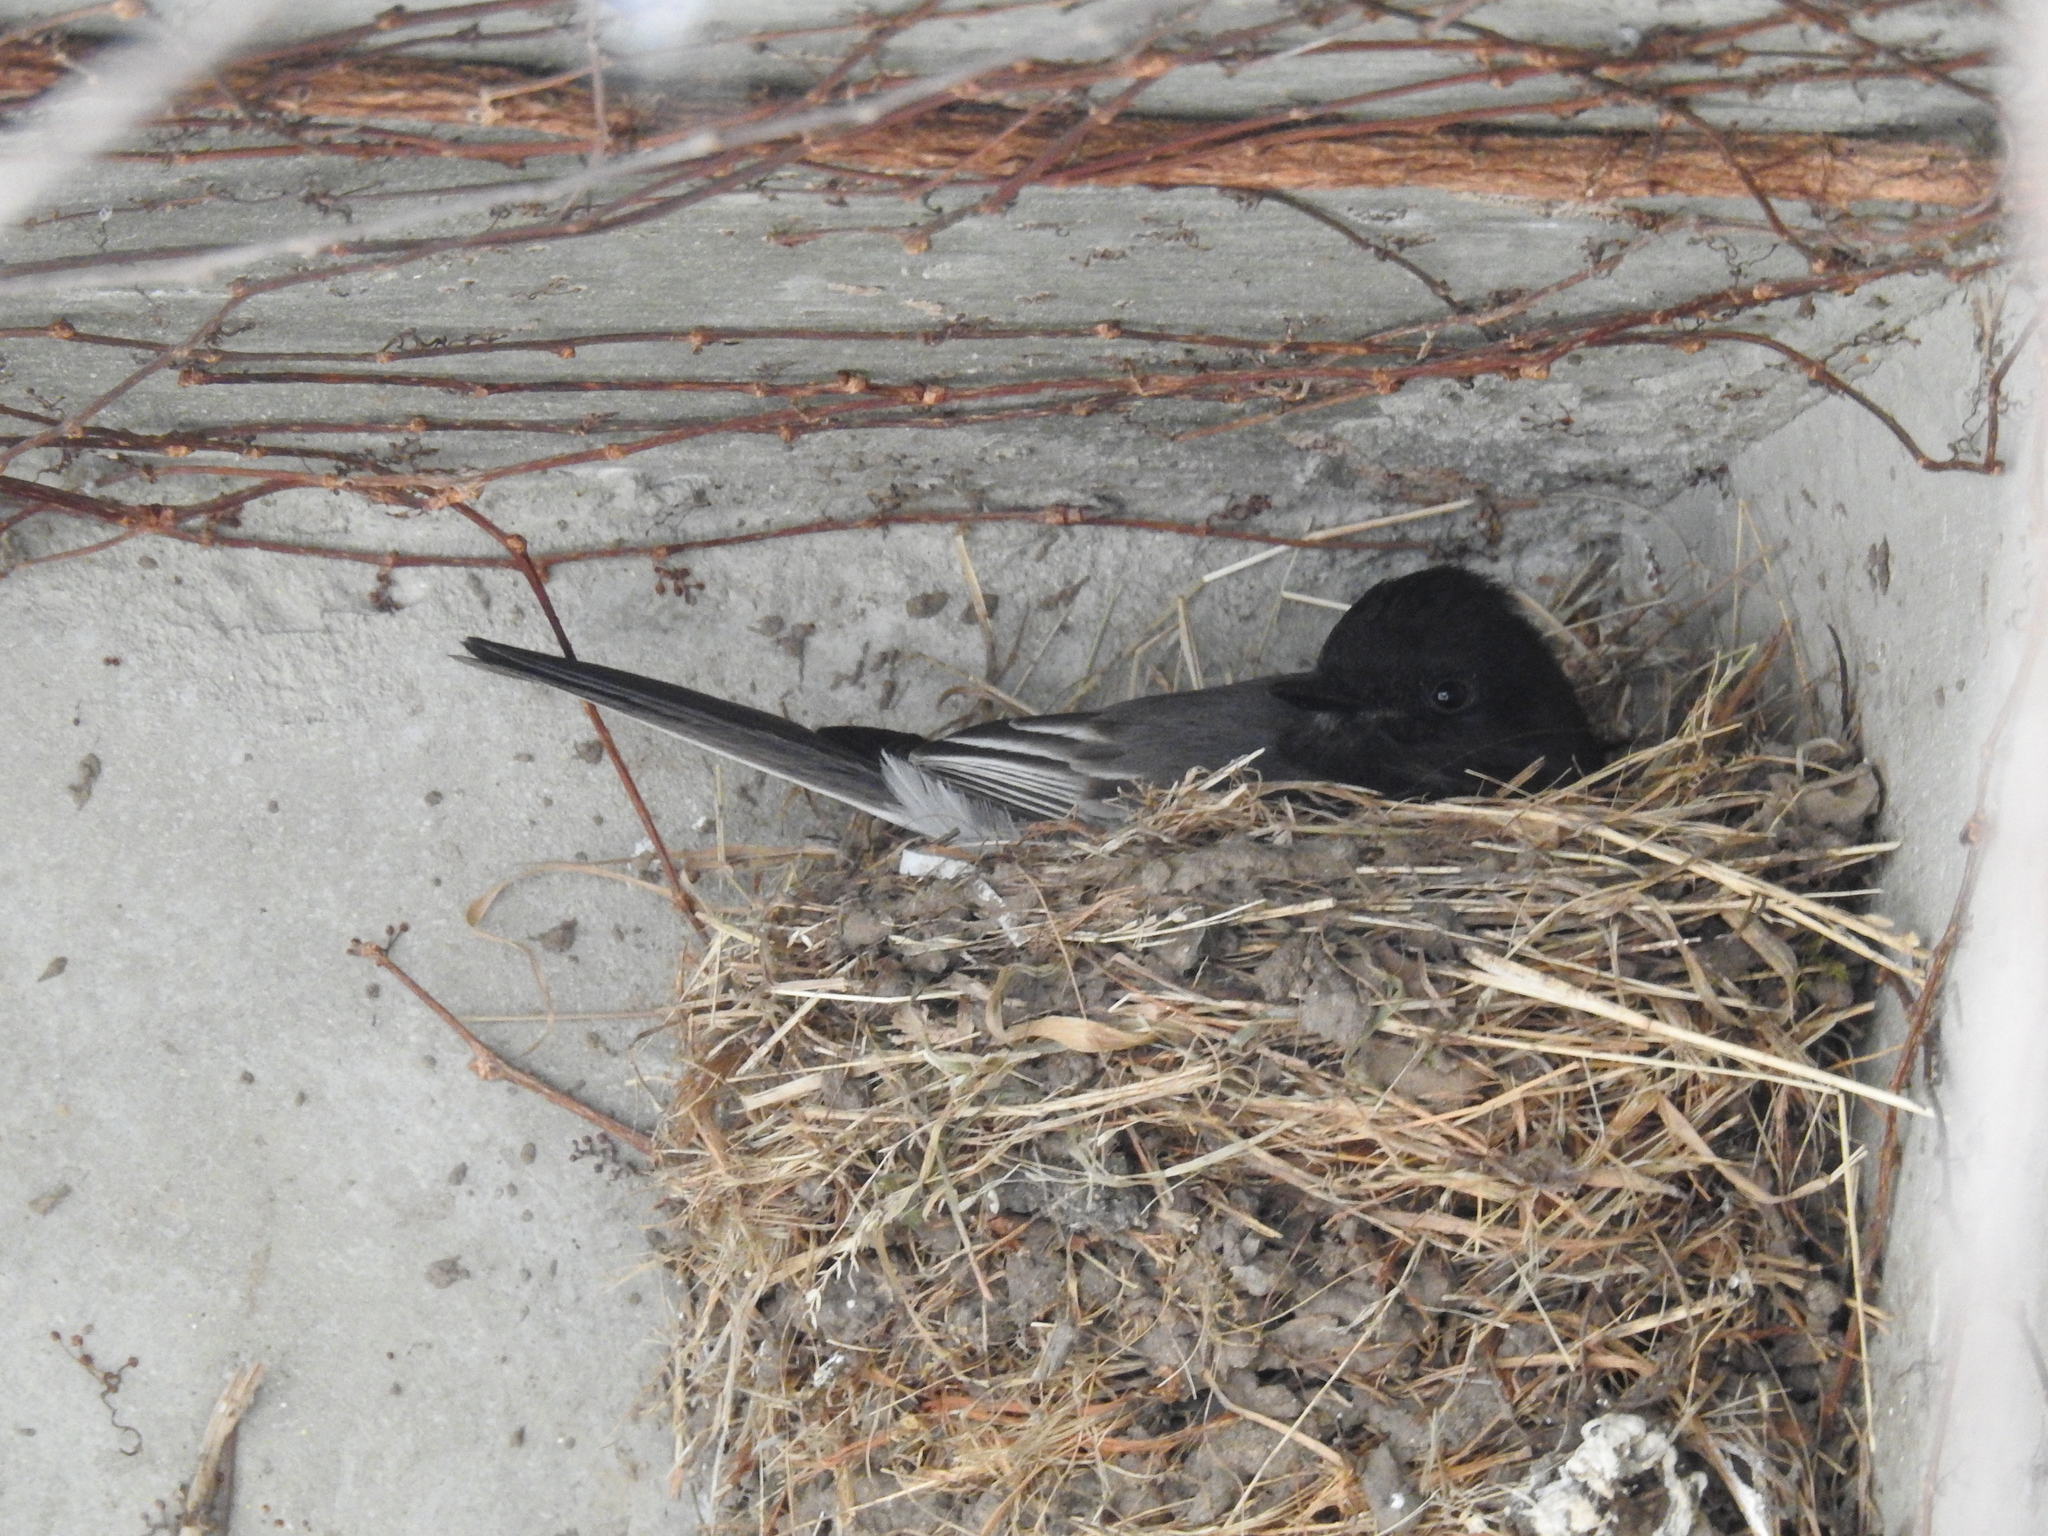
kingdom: Animalia
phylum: Chordata
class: Aves
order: Passeriformes
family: Tyrannidae
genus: Sayornis
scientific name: Sayornis nigricans
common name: Black phoebe
